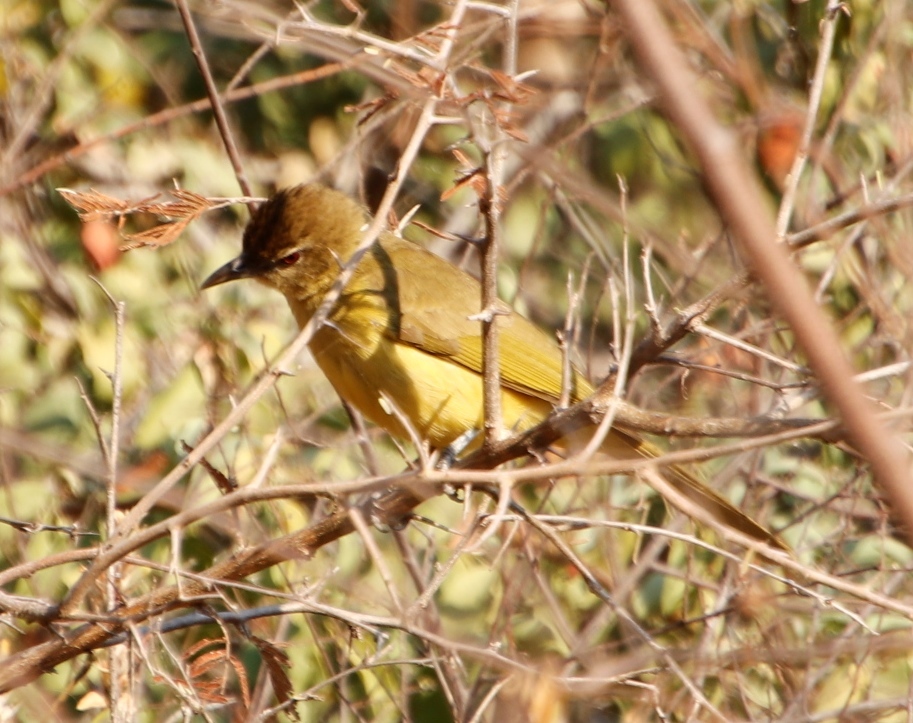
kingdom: Animalia
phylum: Chordata
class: Aves
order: Passeriformes
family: Pycnonotidae
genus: Chlorocichla
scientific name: Chlorocichla flaviventris
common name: Yellow-bellied greenbul
